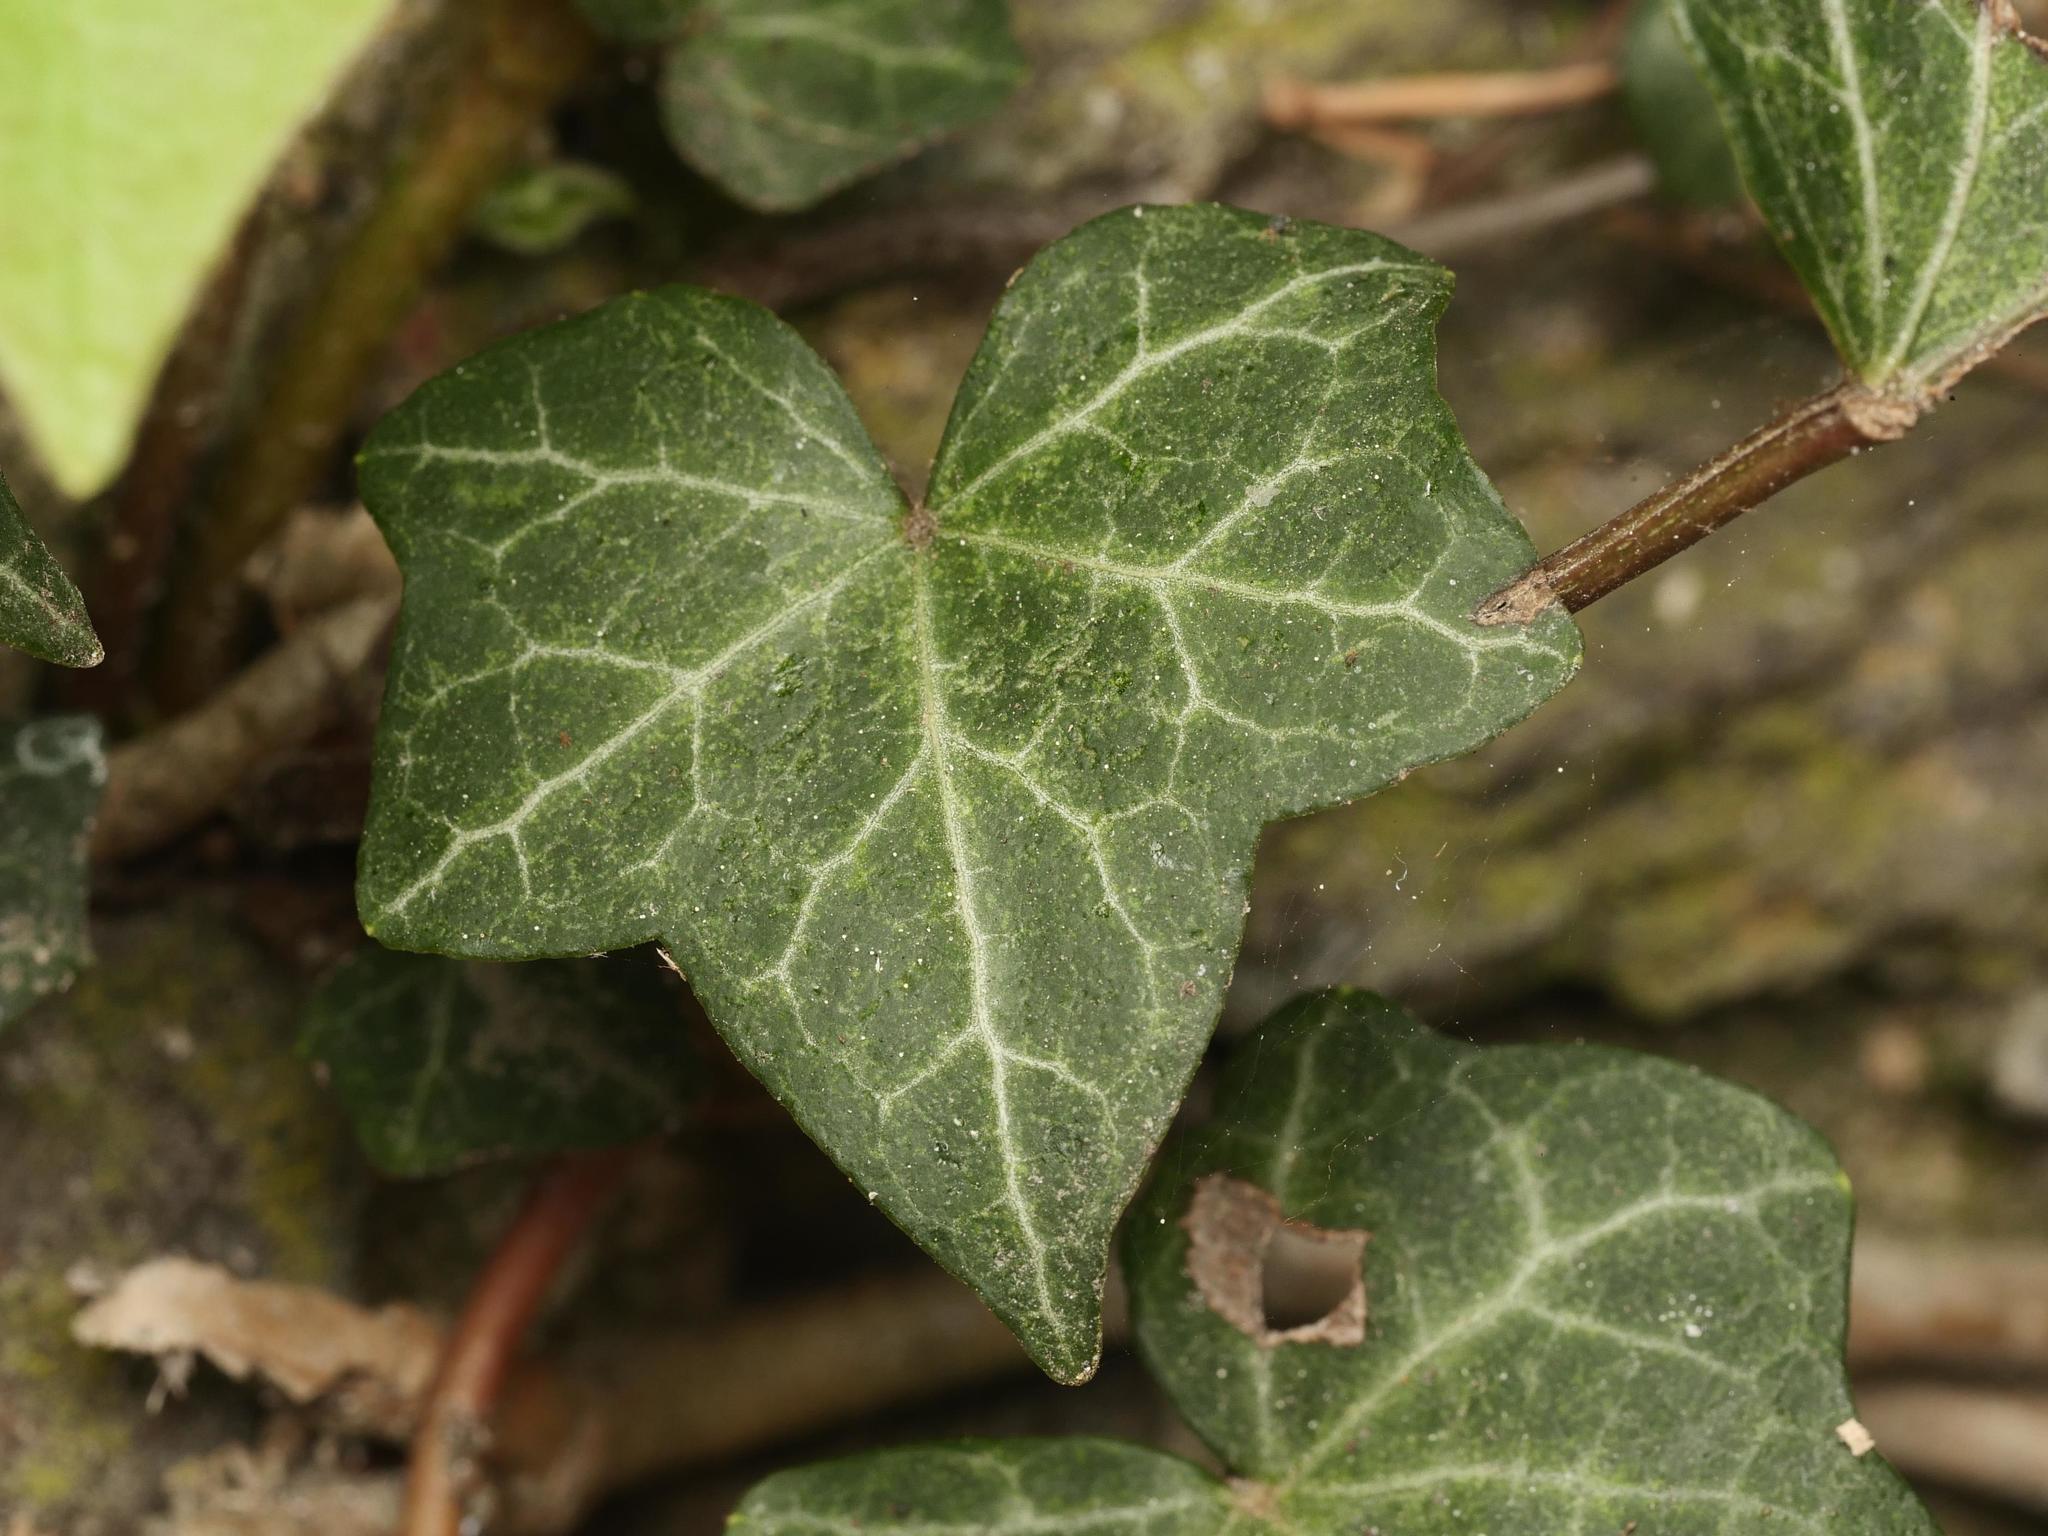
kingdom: Plantae
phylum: Tracheophyta
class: Magnoliopsida
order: Apiales
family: Araliaceae
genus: Hedera
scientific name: Hedera helix
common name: Ivy
